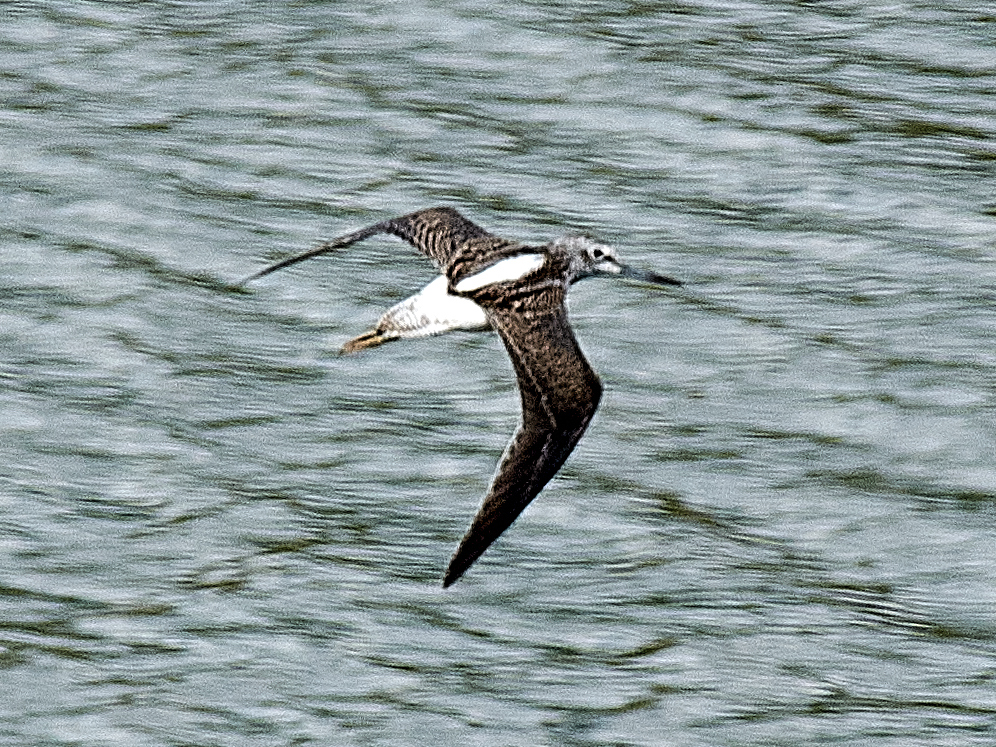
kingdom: Animalia
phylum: Chordata
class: Aves
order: Charadriiformes
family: Scolopacidae
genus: Tringa
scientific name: Tringa nebularia
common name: Common greenshank
